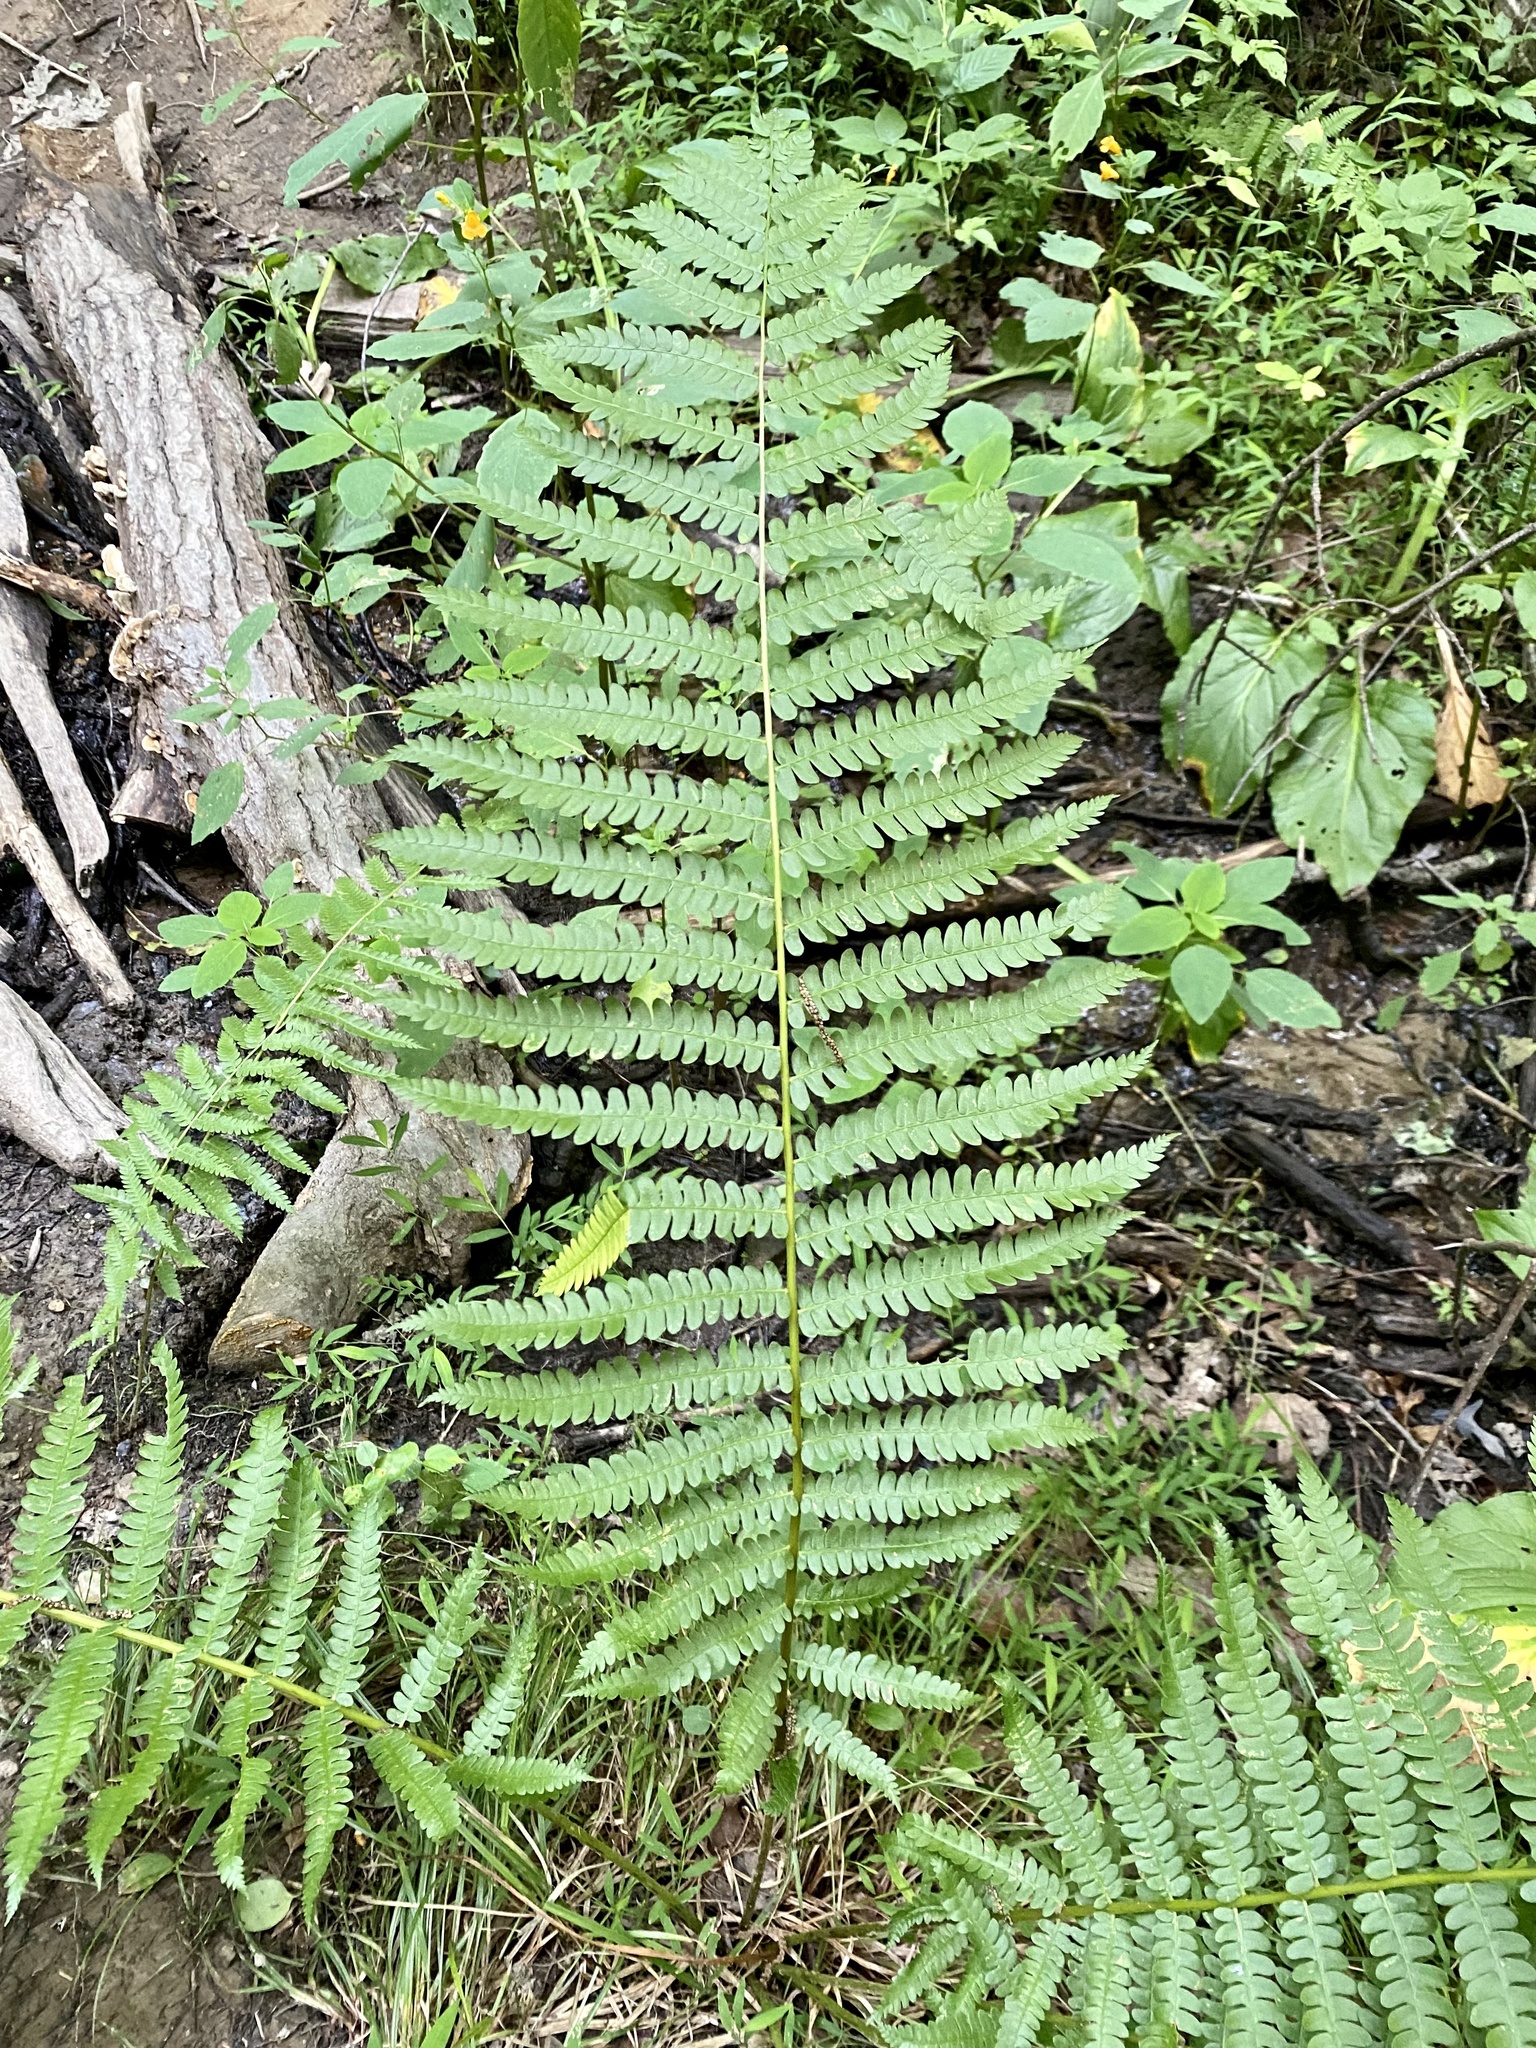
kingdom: Plantae
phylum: Tracheophyta
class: Polypodiopsida
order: Osmundales
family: Osmundaceae
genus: Osmundastrum
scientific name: Osmundastrum cinnamomeum
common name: Cinnamon fern
